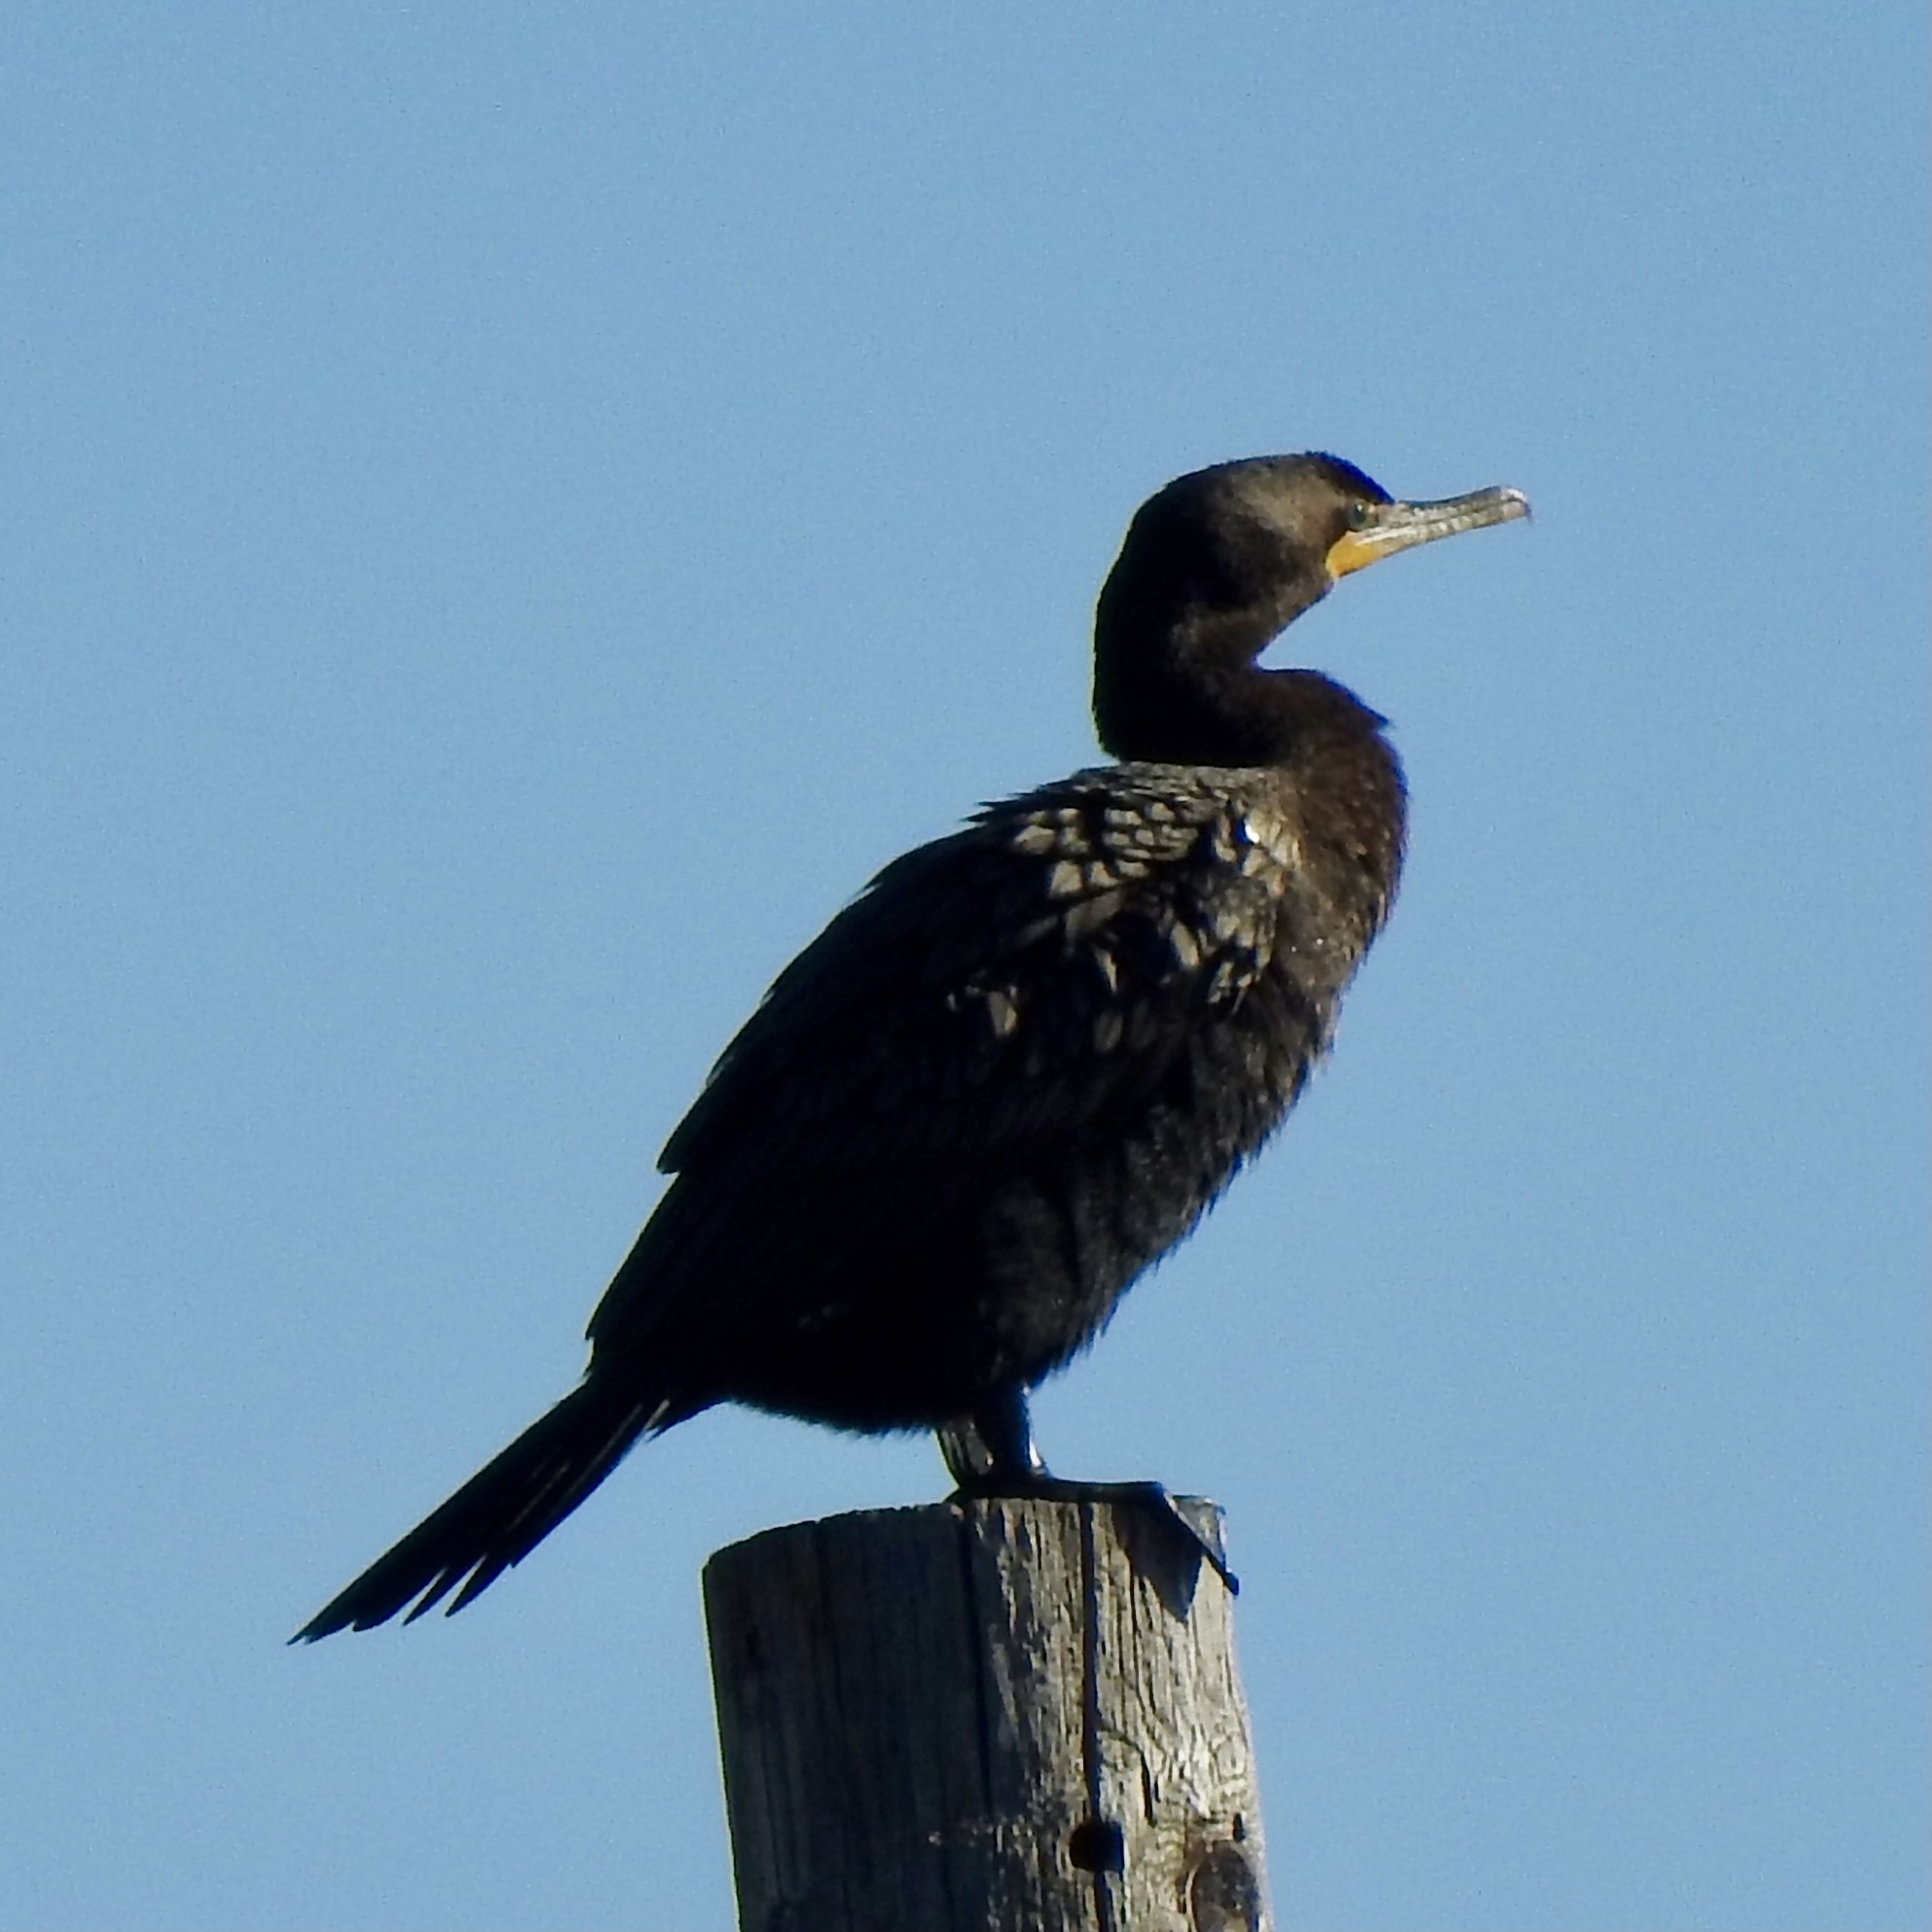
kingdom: Animalia
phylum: Chordata
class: Aves
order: Suliformes
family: Phalacrocoracidae
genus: Phalacrocorax
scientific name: Phalacrocorax brasilianus
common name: Neotropic cormorant
